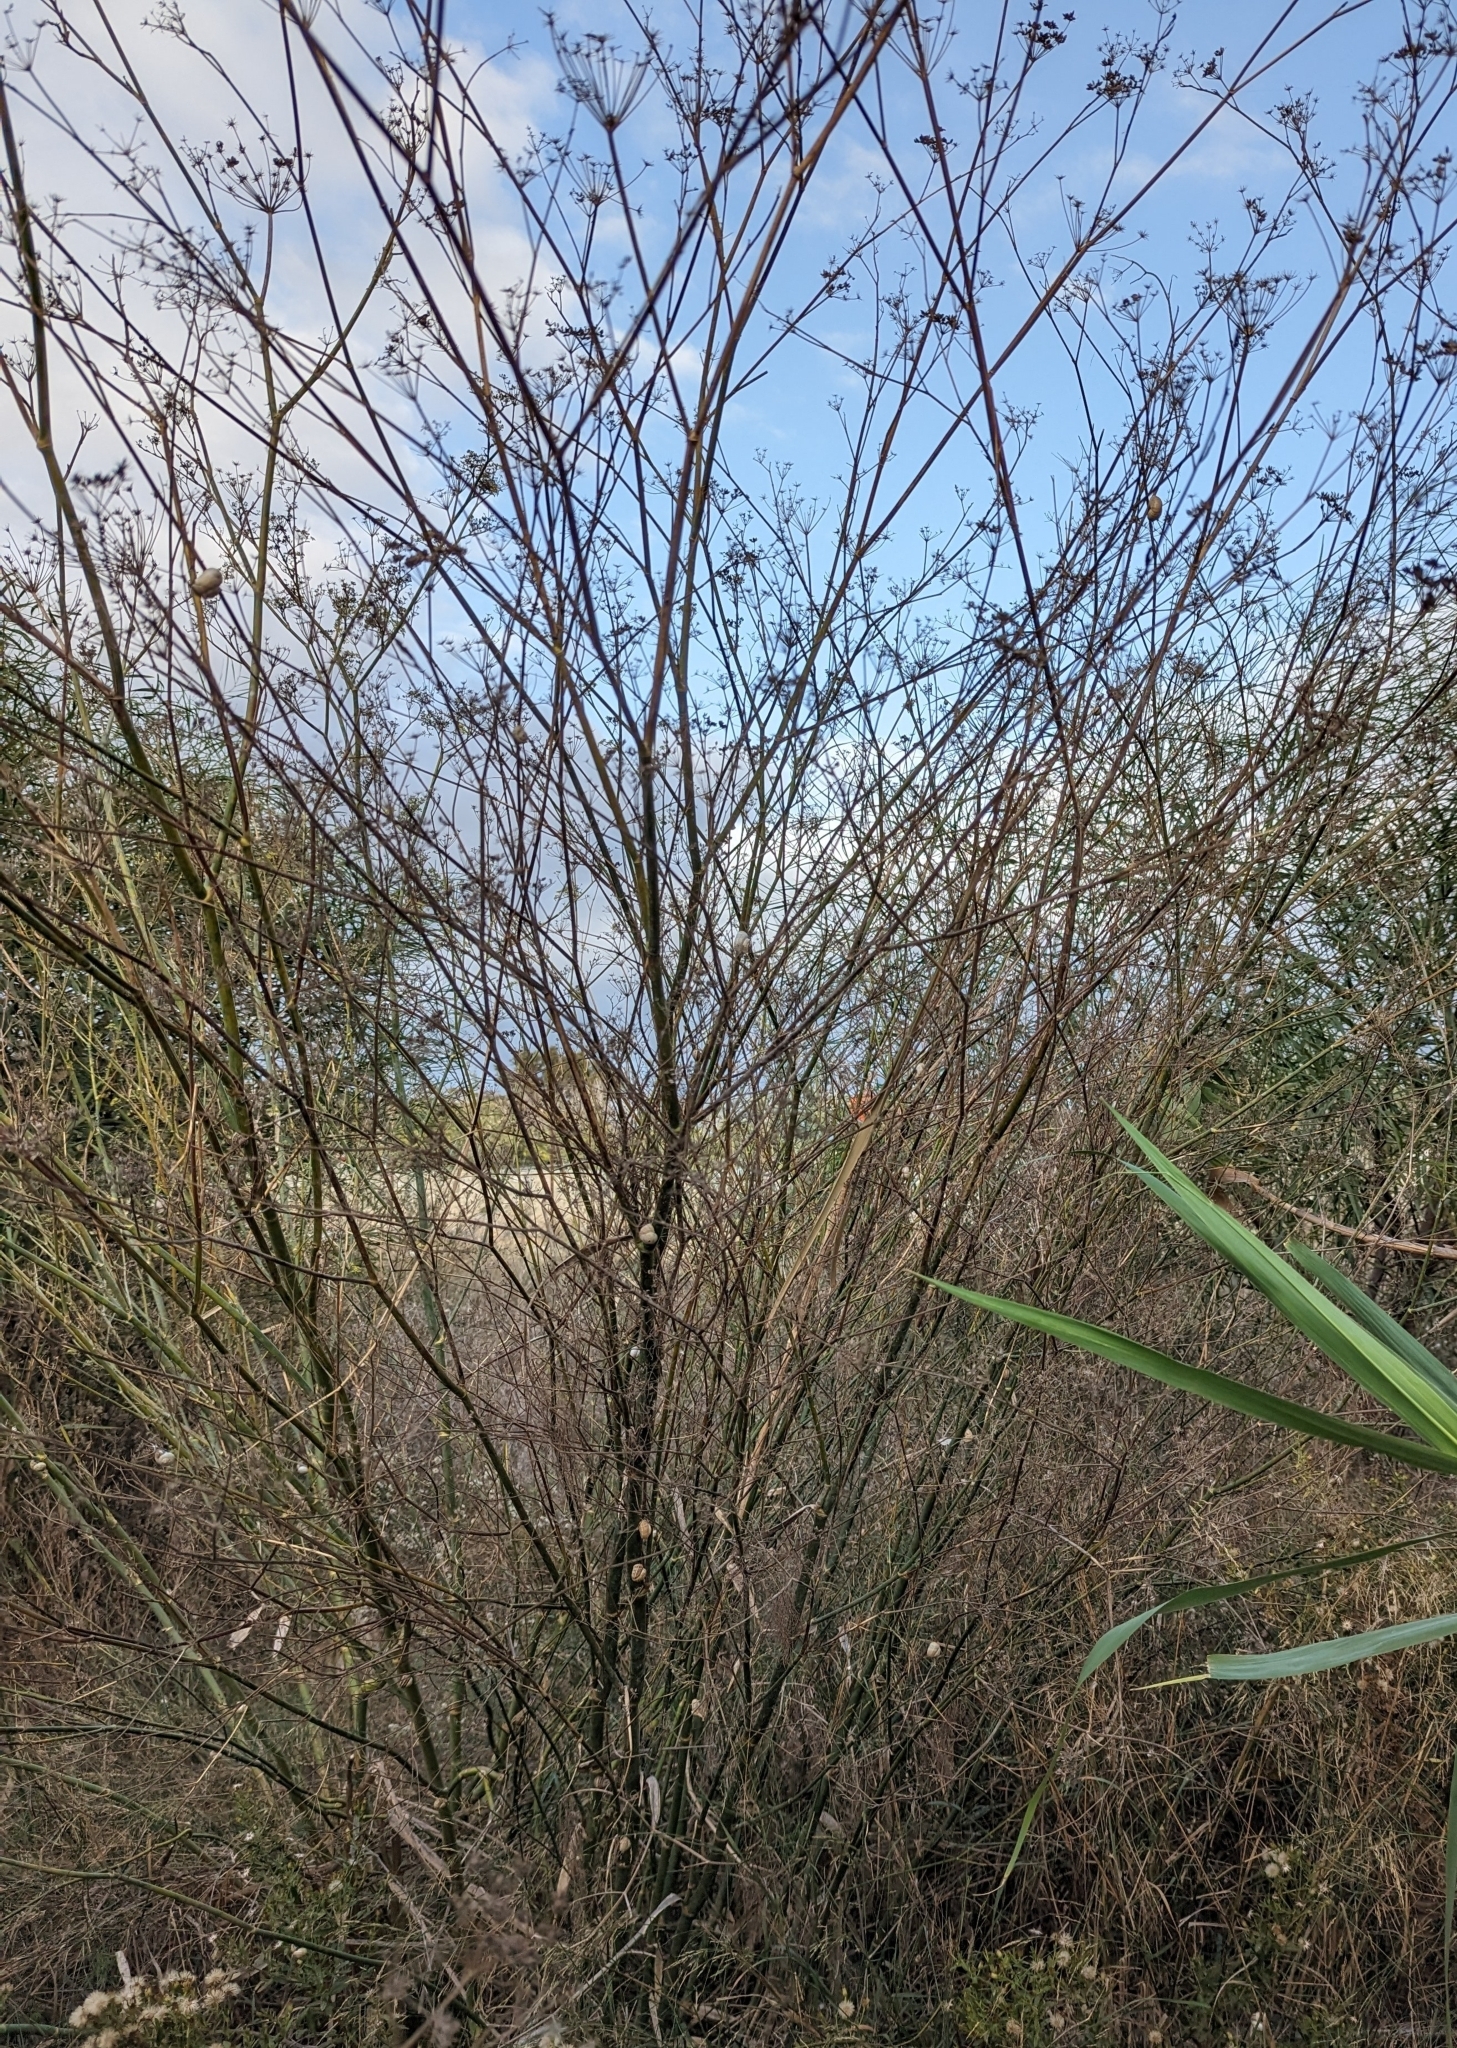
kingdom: Plantae
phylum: Tracheophyta
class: Magnoliopsida
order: Apiales
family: Apiaceae
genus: Foeniculum
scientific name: Foeniculum vulgare
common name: Fennel
